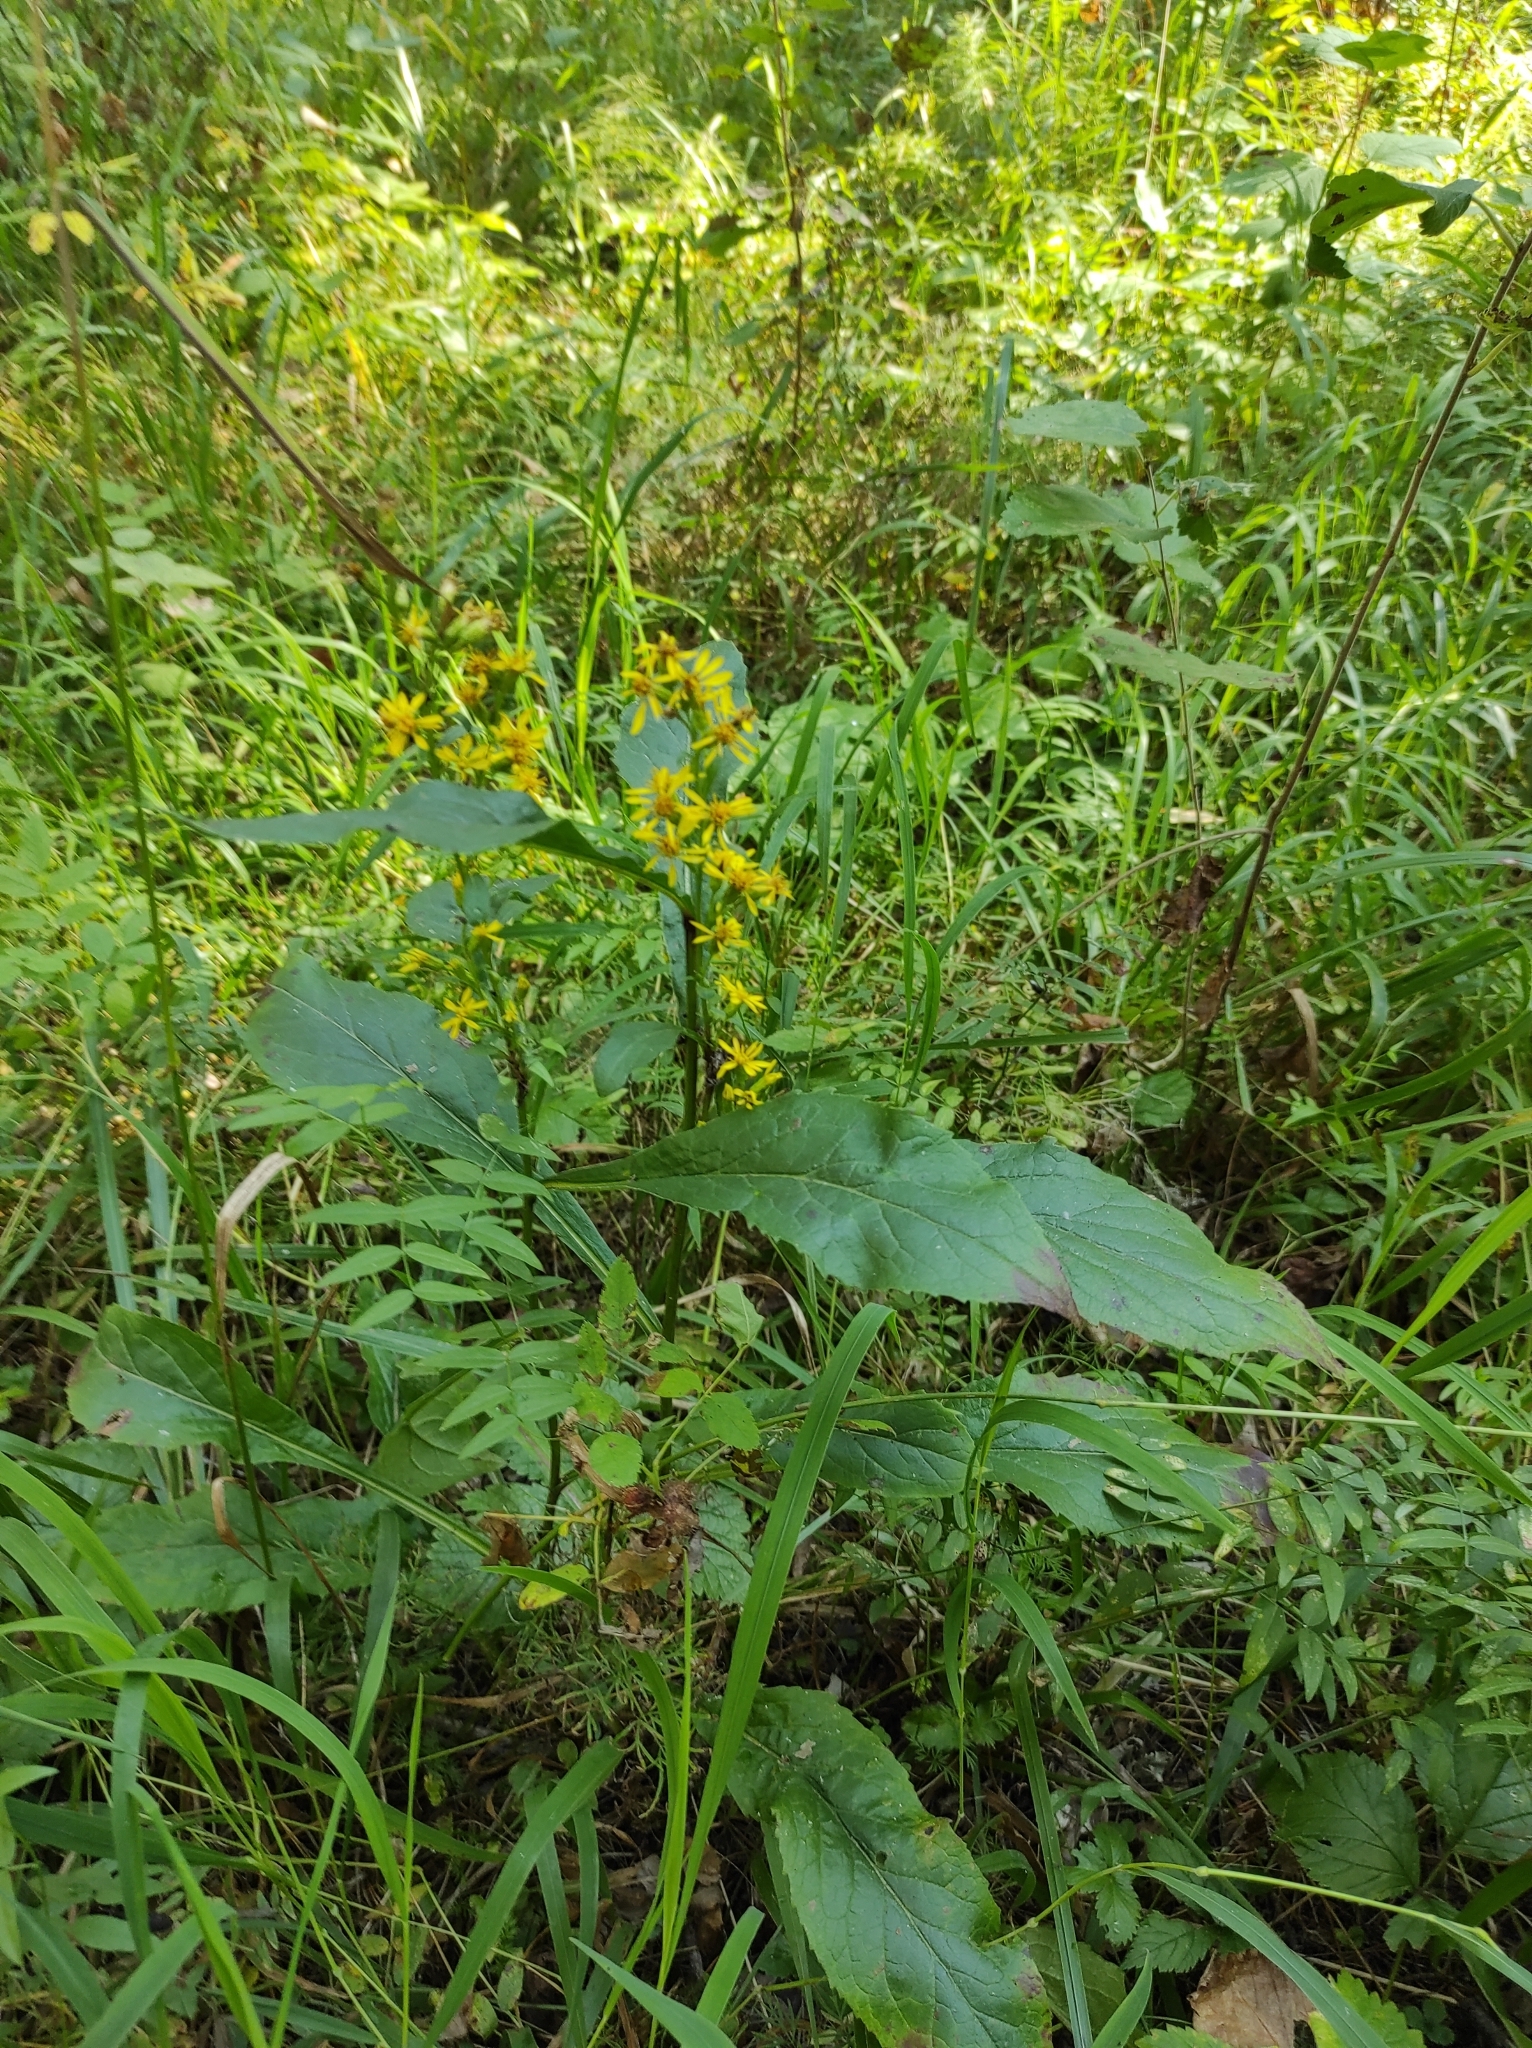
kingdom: Plantae
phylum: Tracheophyta
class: Magnoliopsida
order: Asterales
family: Asteraceae
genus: Solidago
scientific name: Solidago virgaurea
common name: Goldenrod
